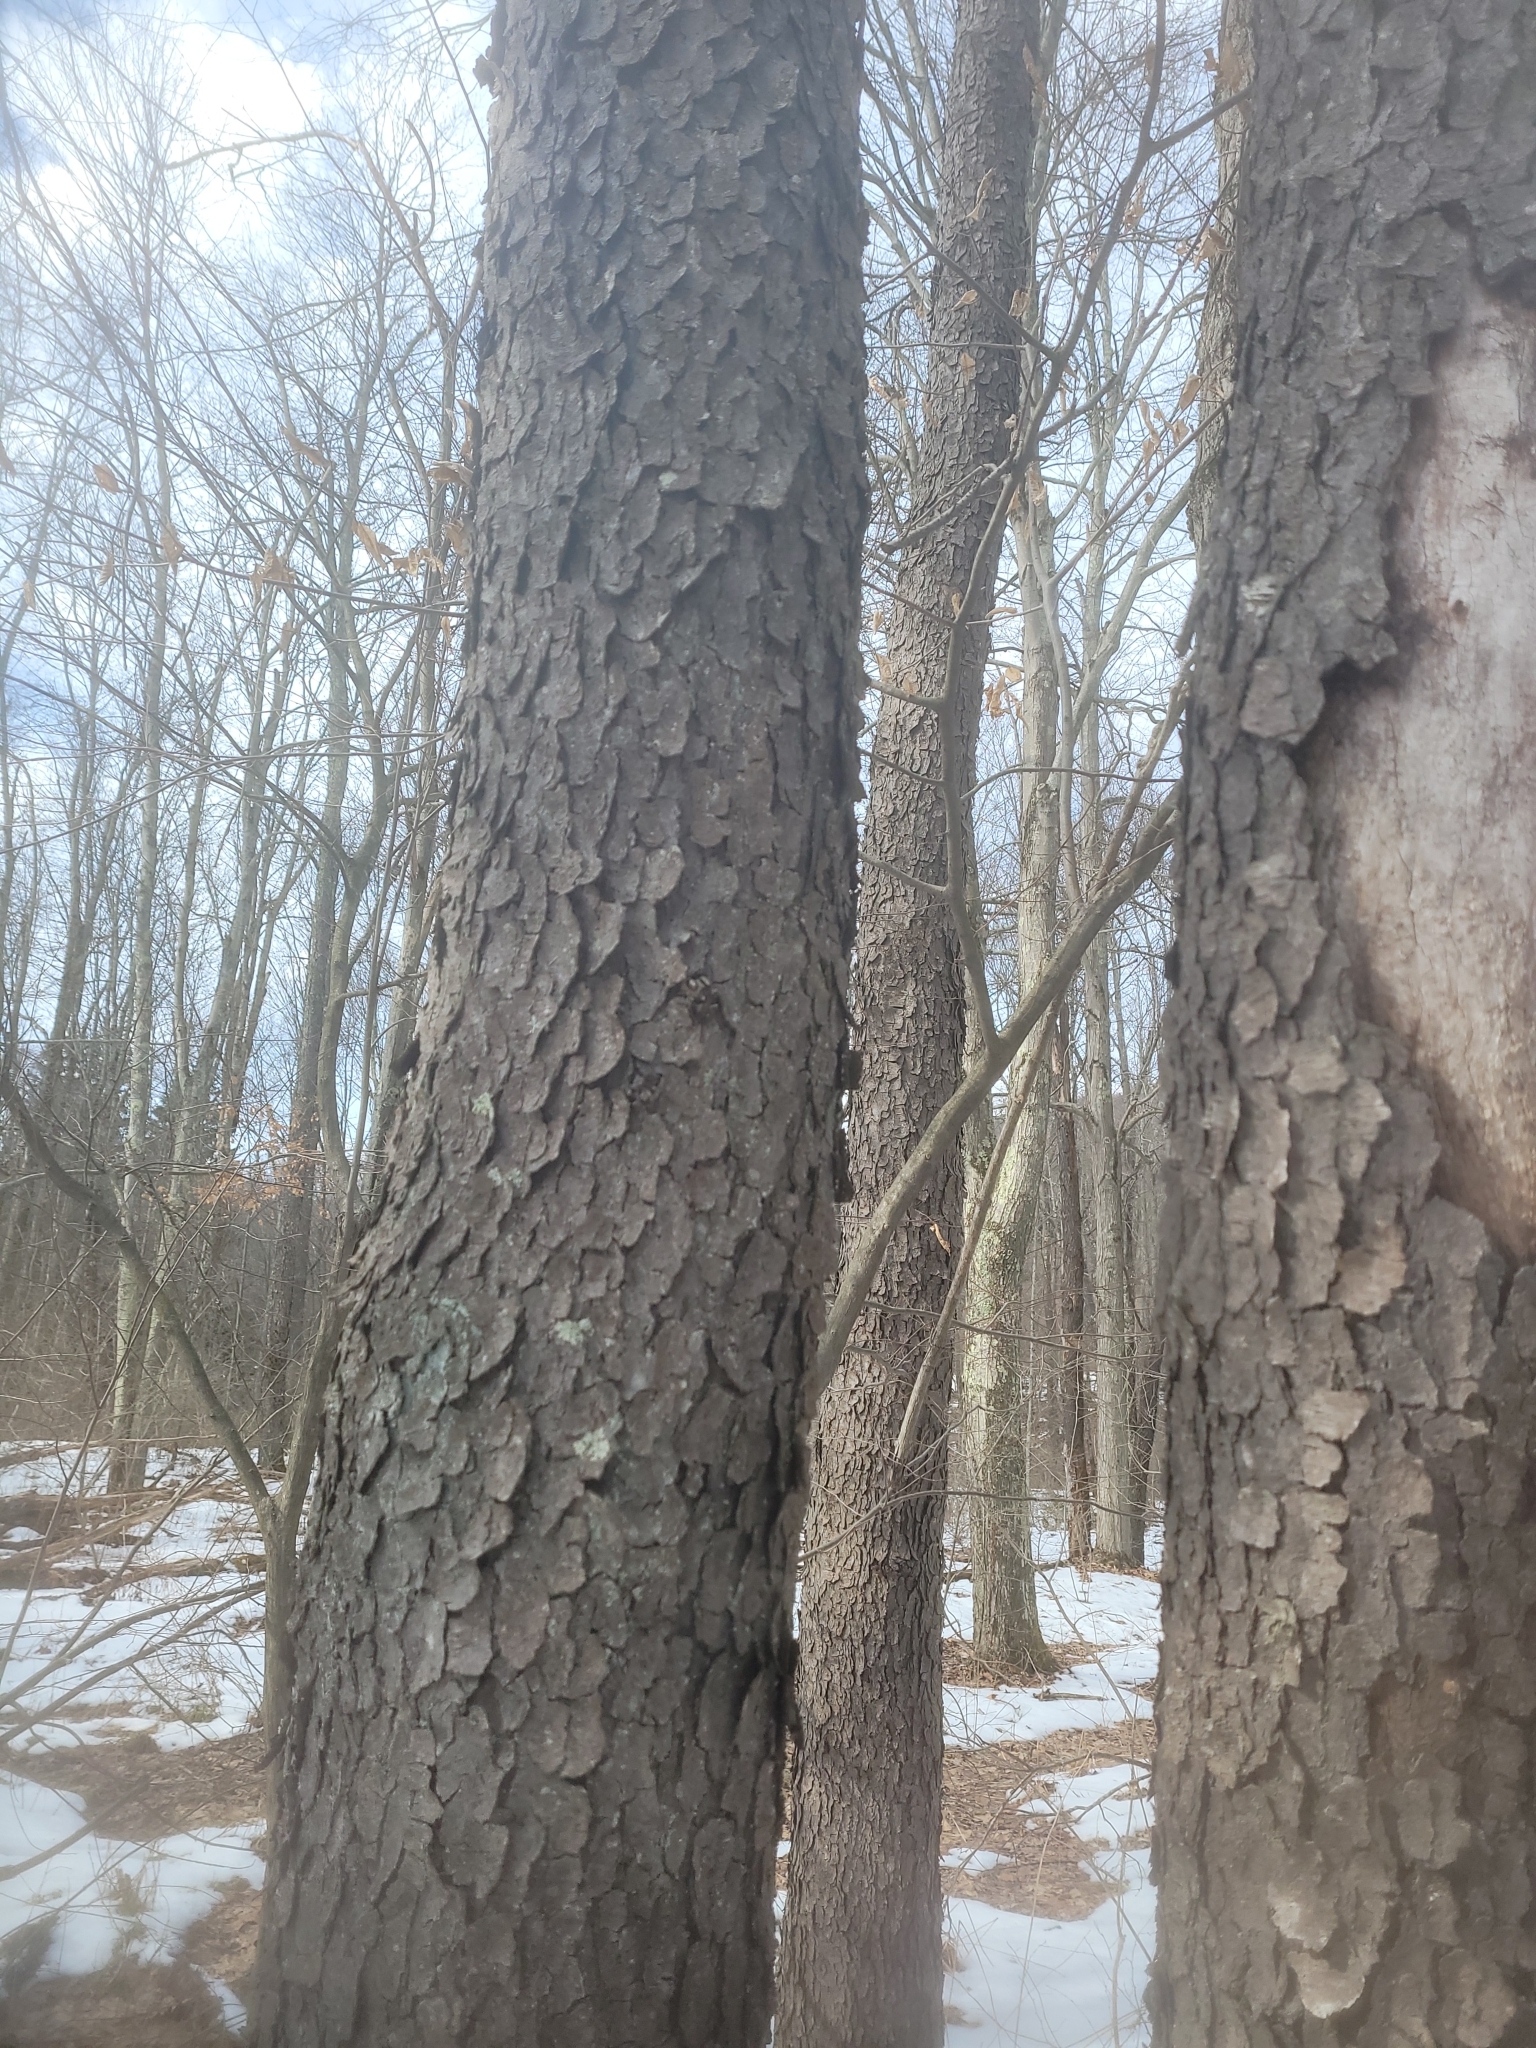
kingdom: Plantae
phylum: Tracheophyta
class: Magnoliopsida
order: Rosales
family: Rosaceae
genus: Prunus
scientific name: Prunus serotina
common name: Black cherry
